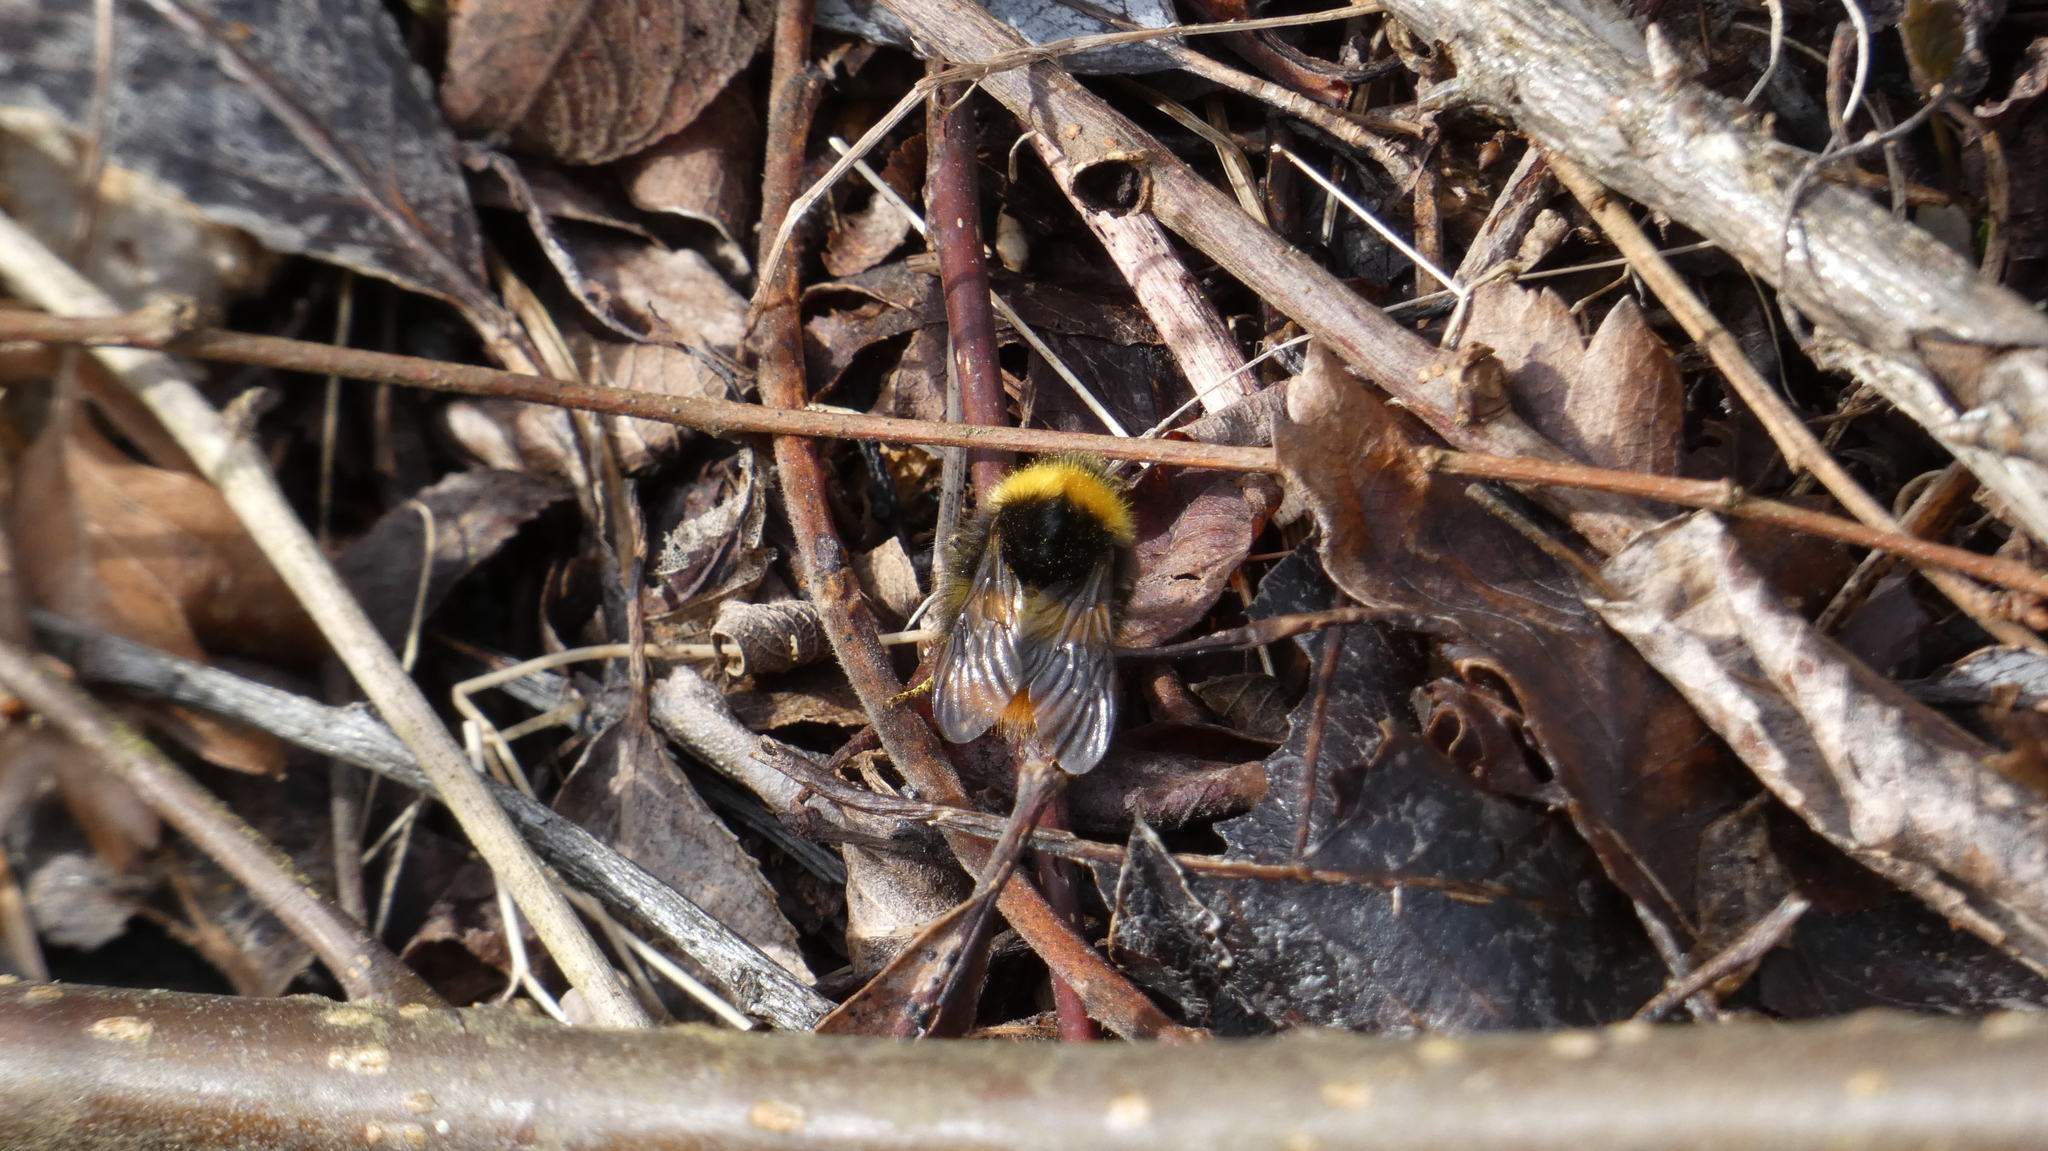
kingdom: Animalia
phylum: Arthropoda
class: Insecta
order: Hymenoptera
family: Apidae
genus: Bombus
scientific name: Bombus pratorum
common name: Early humble-bee
